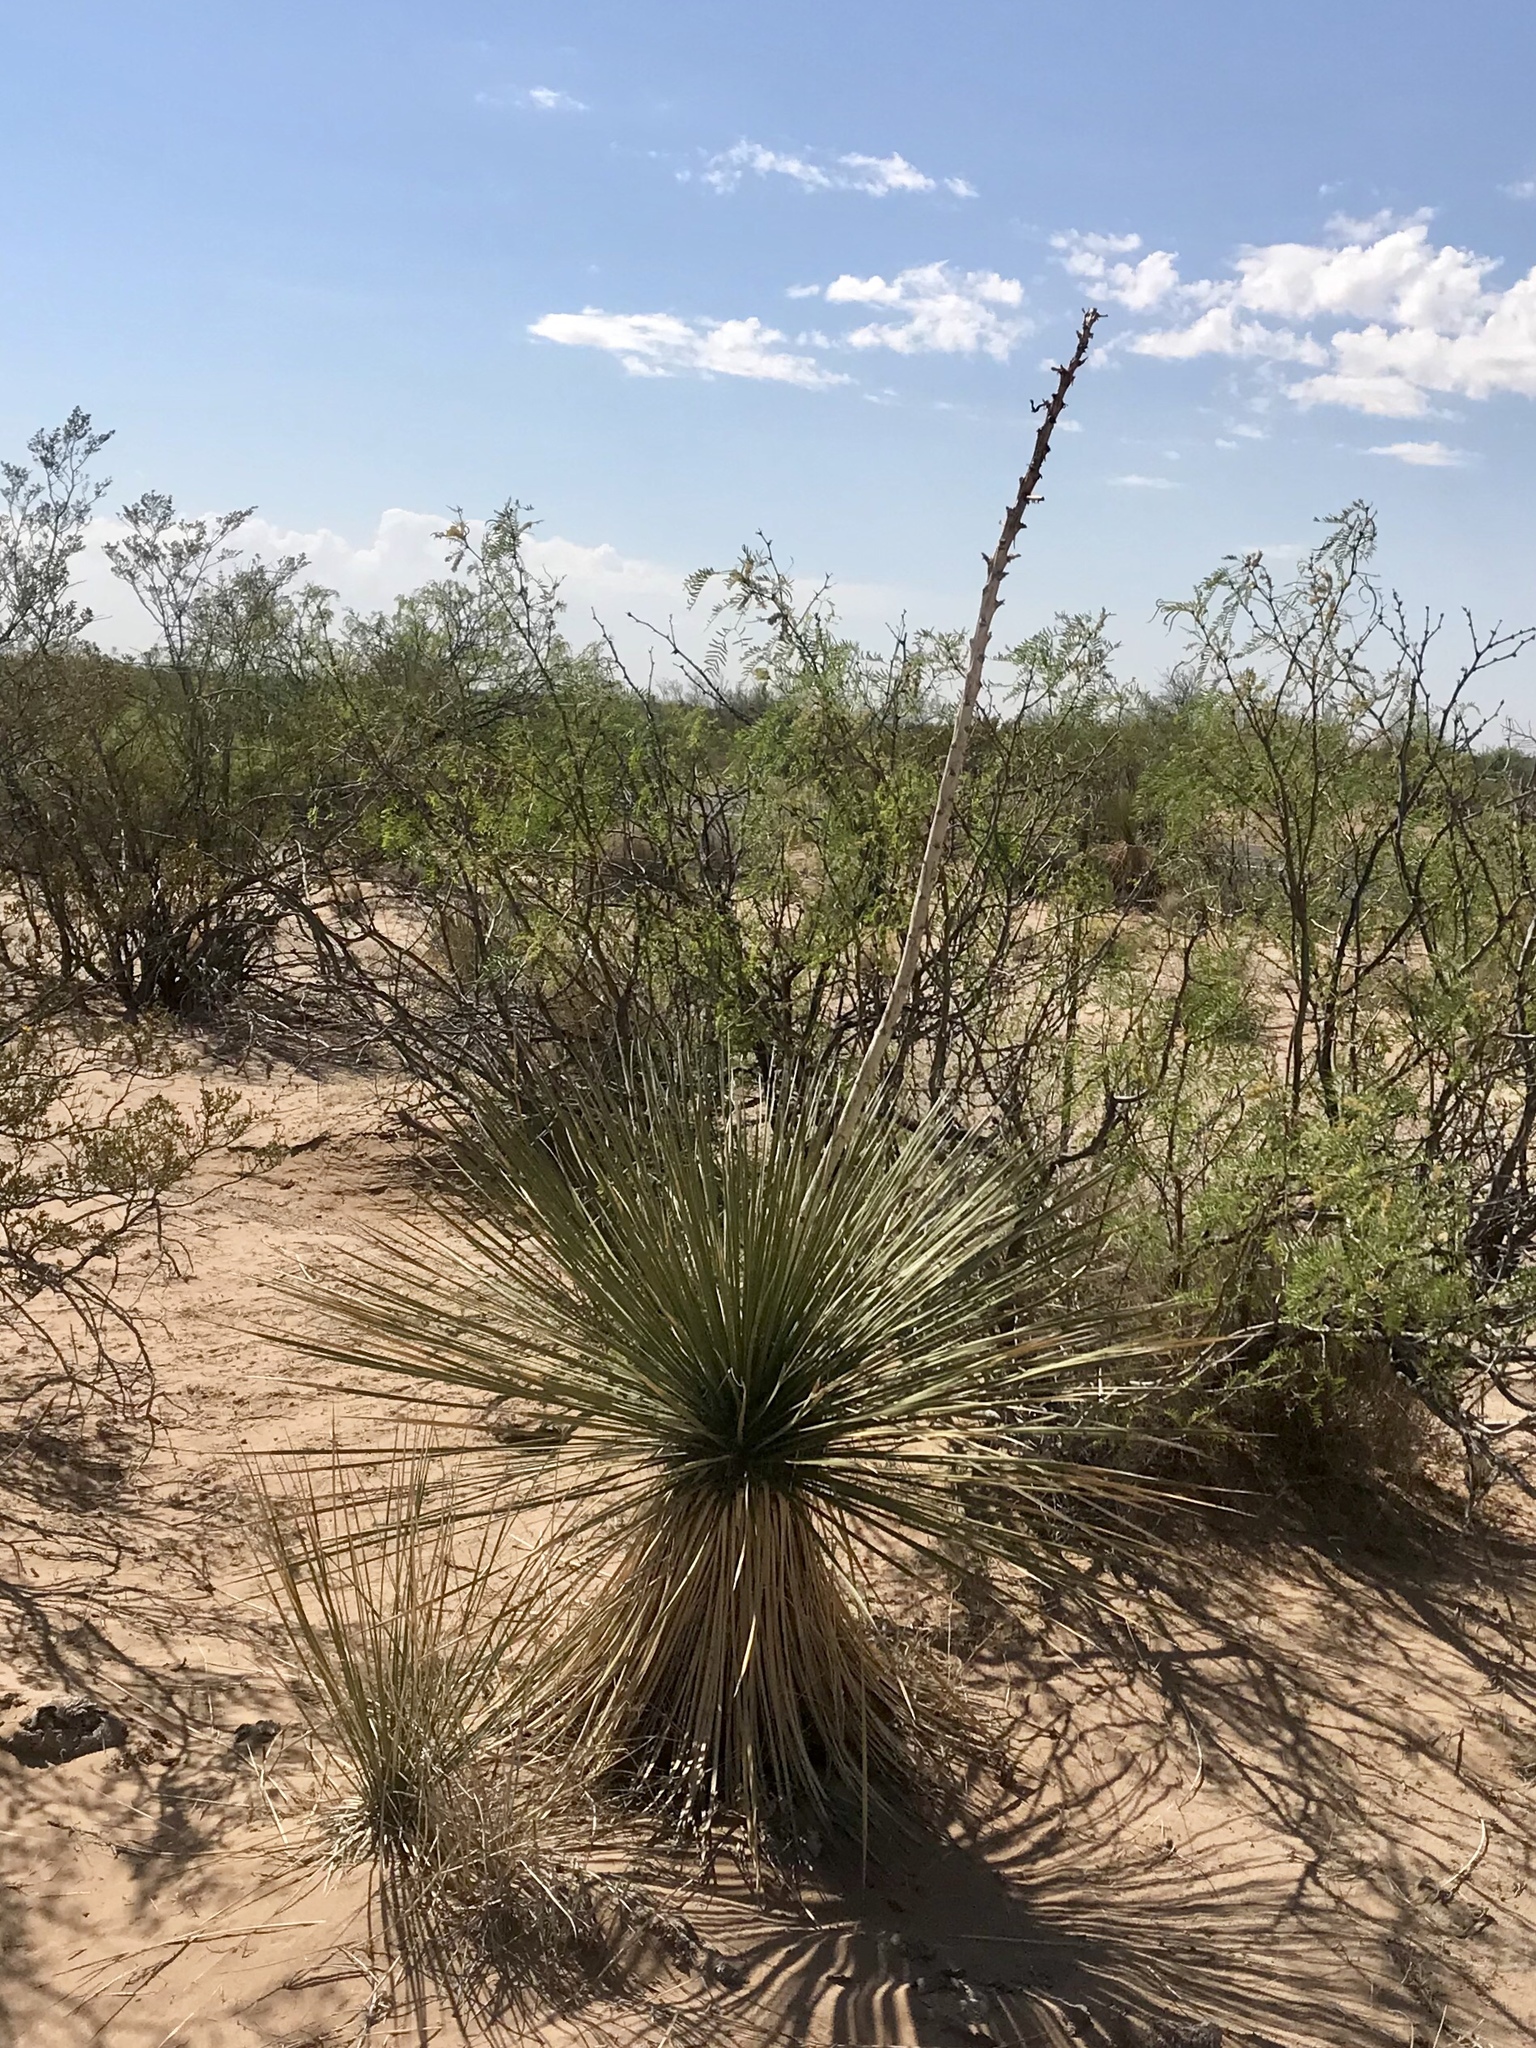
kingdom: Plantae
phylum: Tracheophyta
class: Liliopsida
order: Asparagales
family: Asparagaceae
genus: Yucca
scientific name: Yucca elata
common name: Palmella
